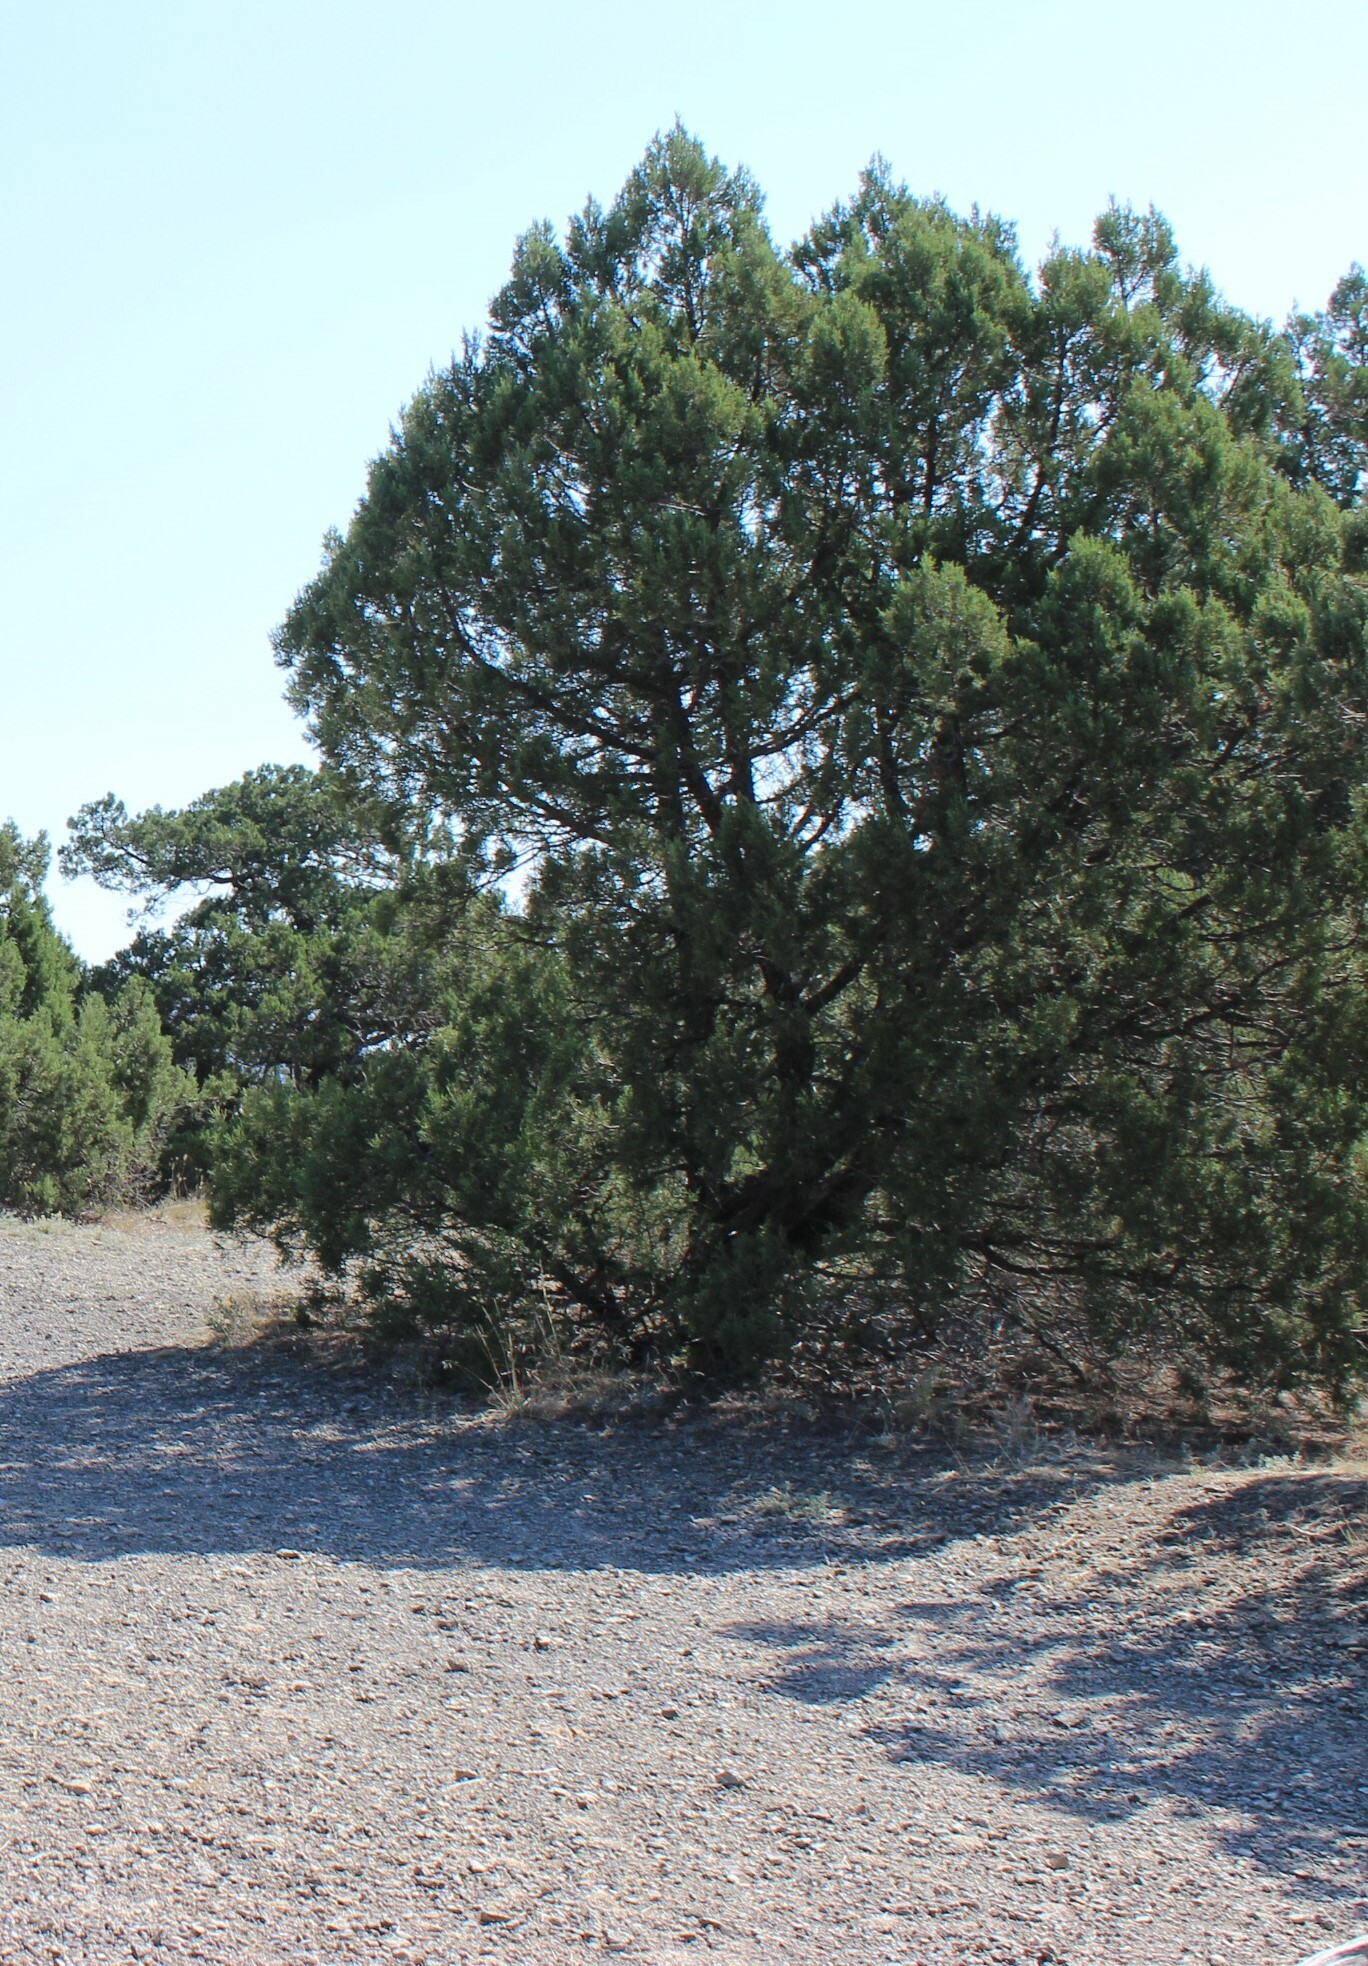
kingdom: Plantae
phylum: Tracheophyta
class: Pinopsida
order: Pinales
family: Cupressaceae
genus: Juniperus
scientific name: Juniperus excelsa
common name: Crimean juniper
